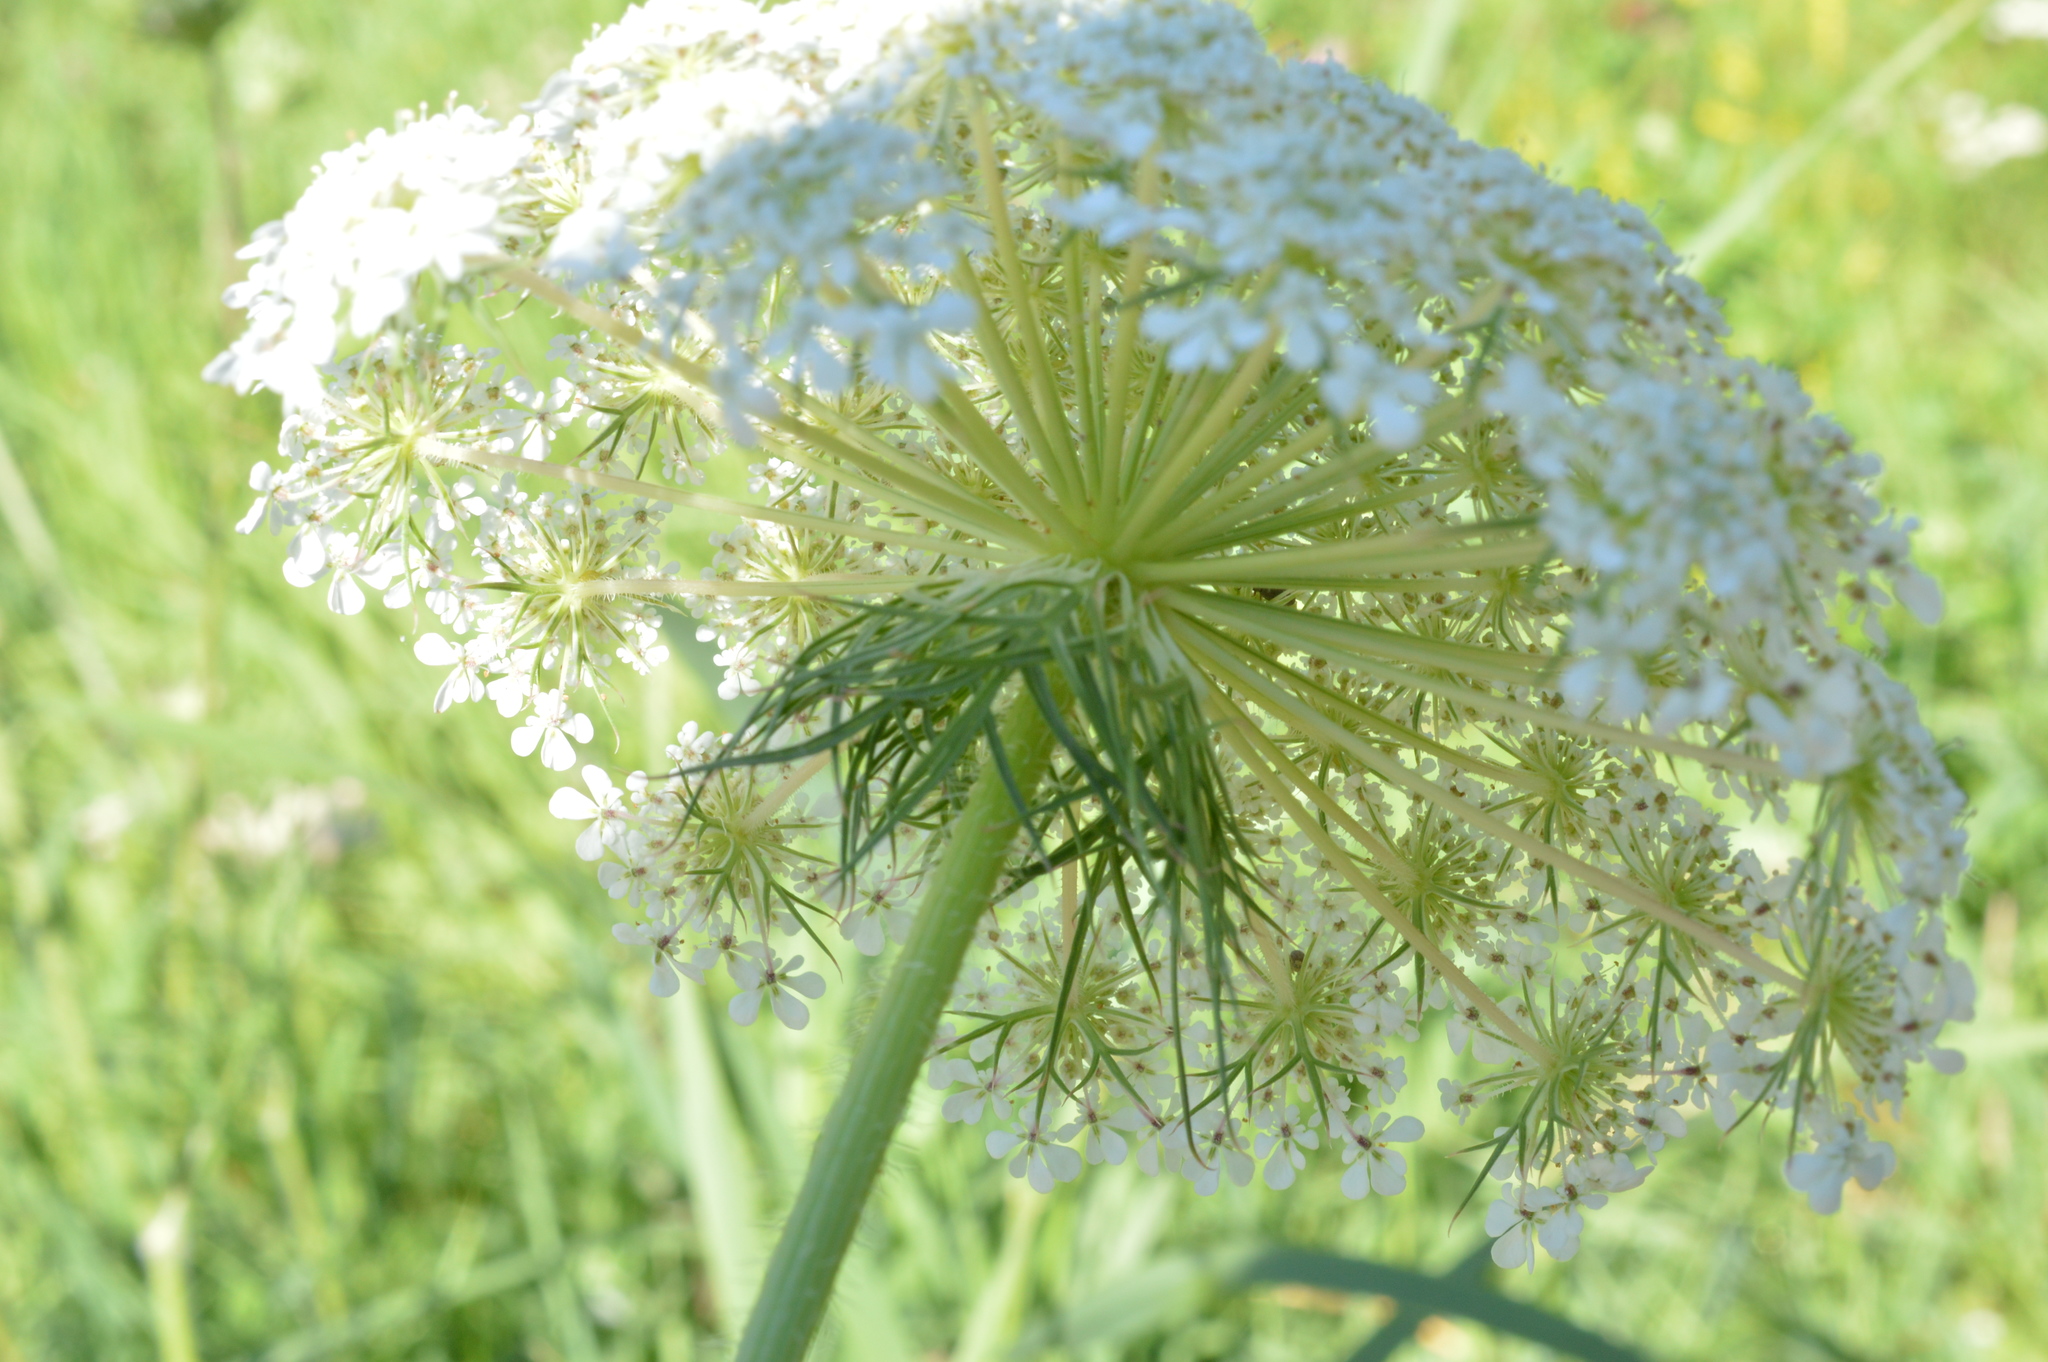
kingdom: Plantae
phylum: Tracheophyta
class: Magnoliopsida
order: Apiales
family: Apiaceae
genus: Daucus
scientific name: Daucus carota
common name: Wild carrot
